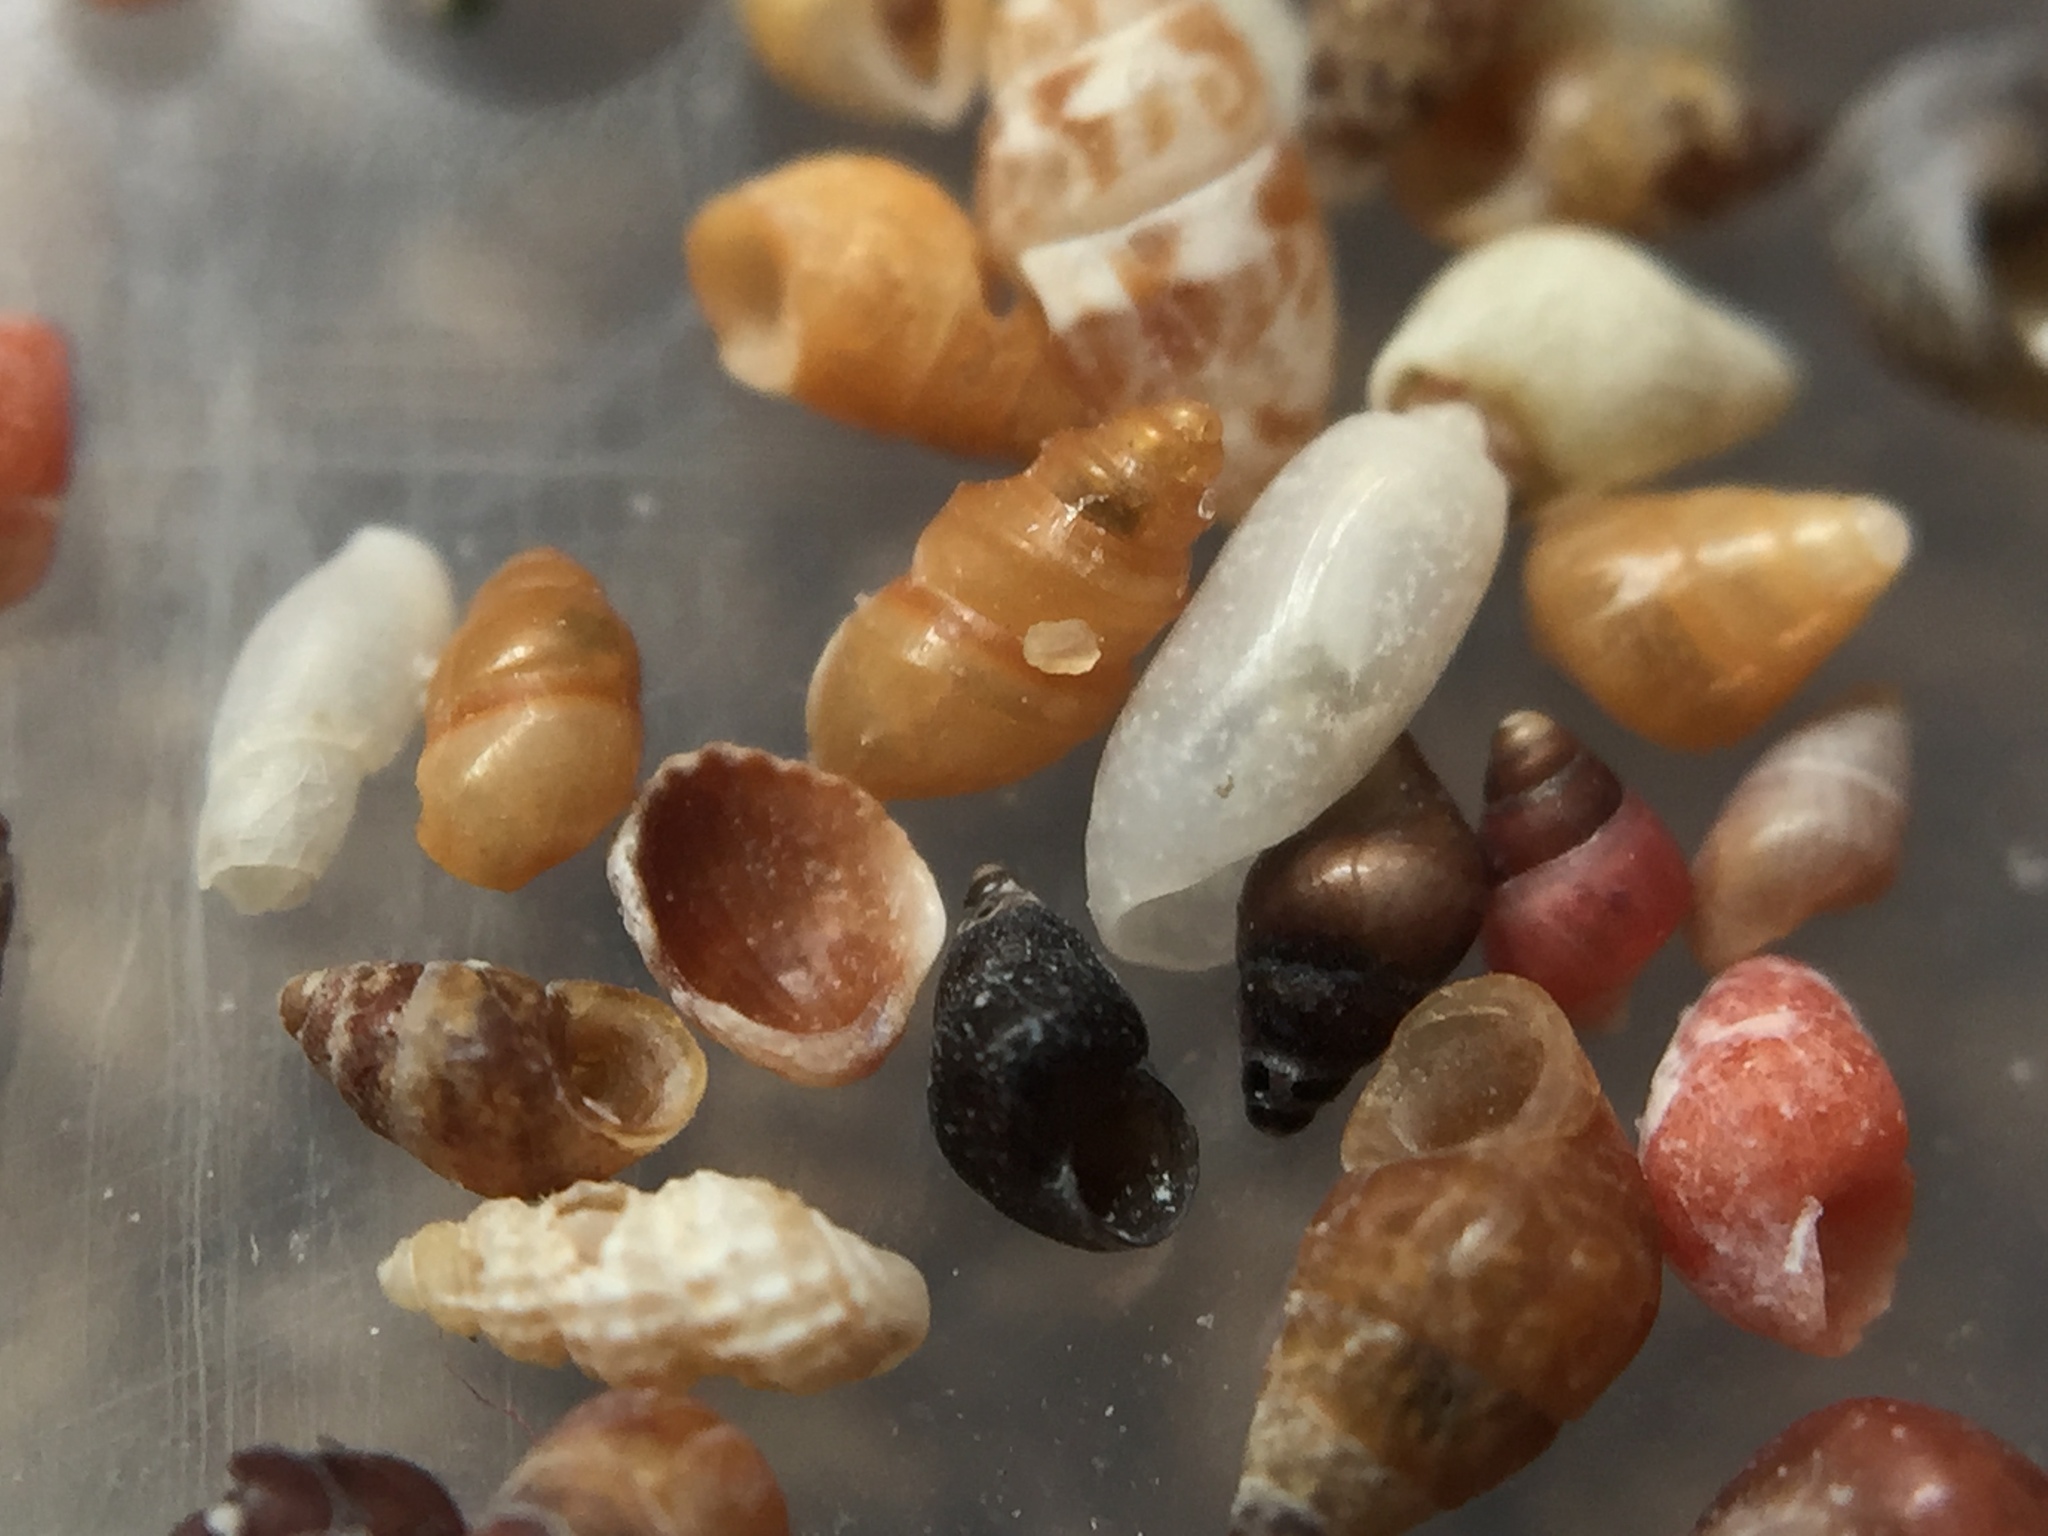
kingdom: Animalia
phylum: Mollusca
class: Gastropoda
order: Littorinimorpha
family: Tateidae
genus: Halopyrgus
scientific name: Halopyrgus pagodulus
